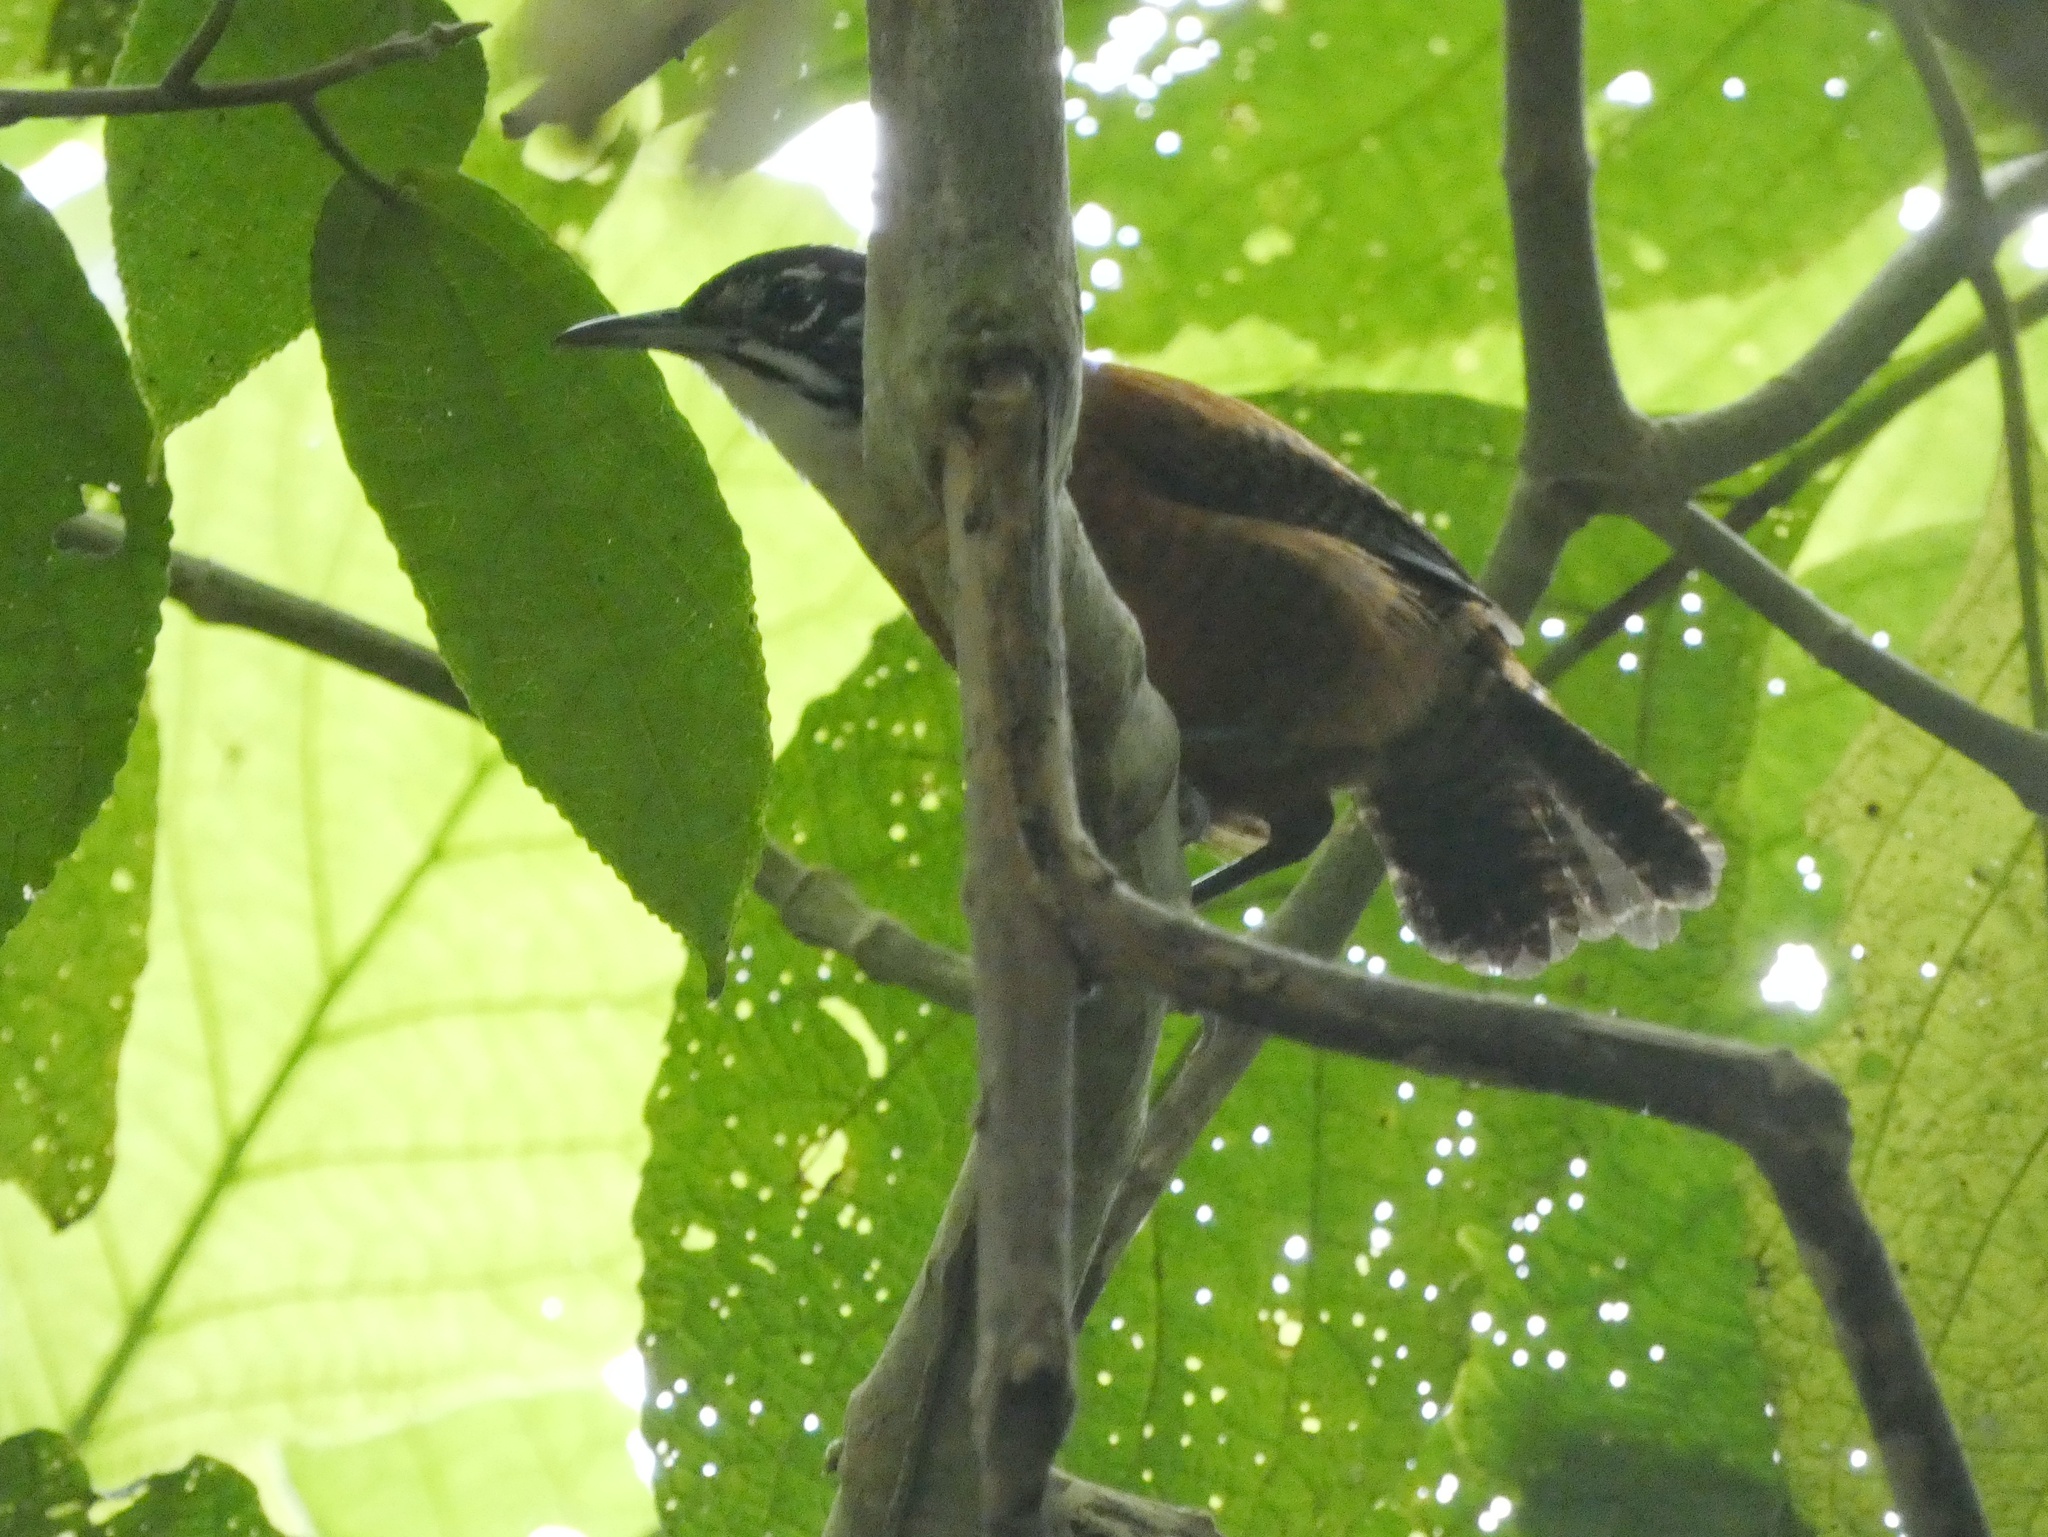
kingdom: Animalia
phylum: Chordata
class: Aves
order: Passeriformes
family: Troglodytidae
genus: Cantorchilus
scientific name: Cantorchilus nigricapillus
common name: Bay wren
